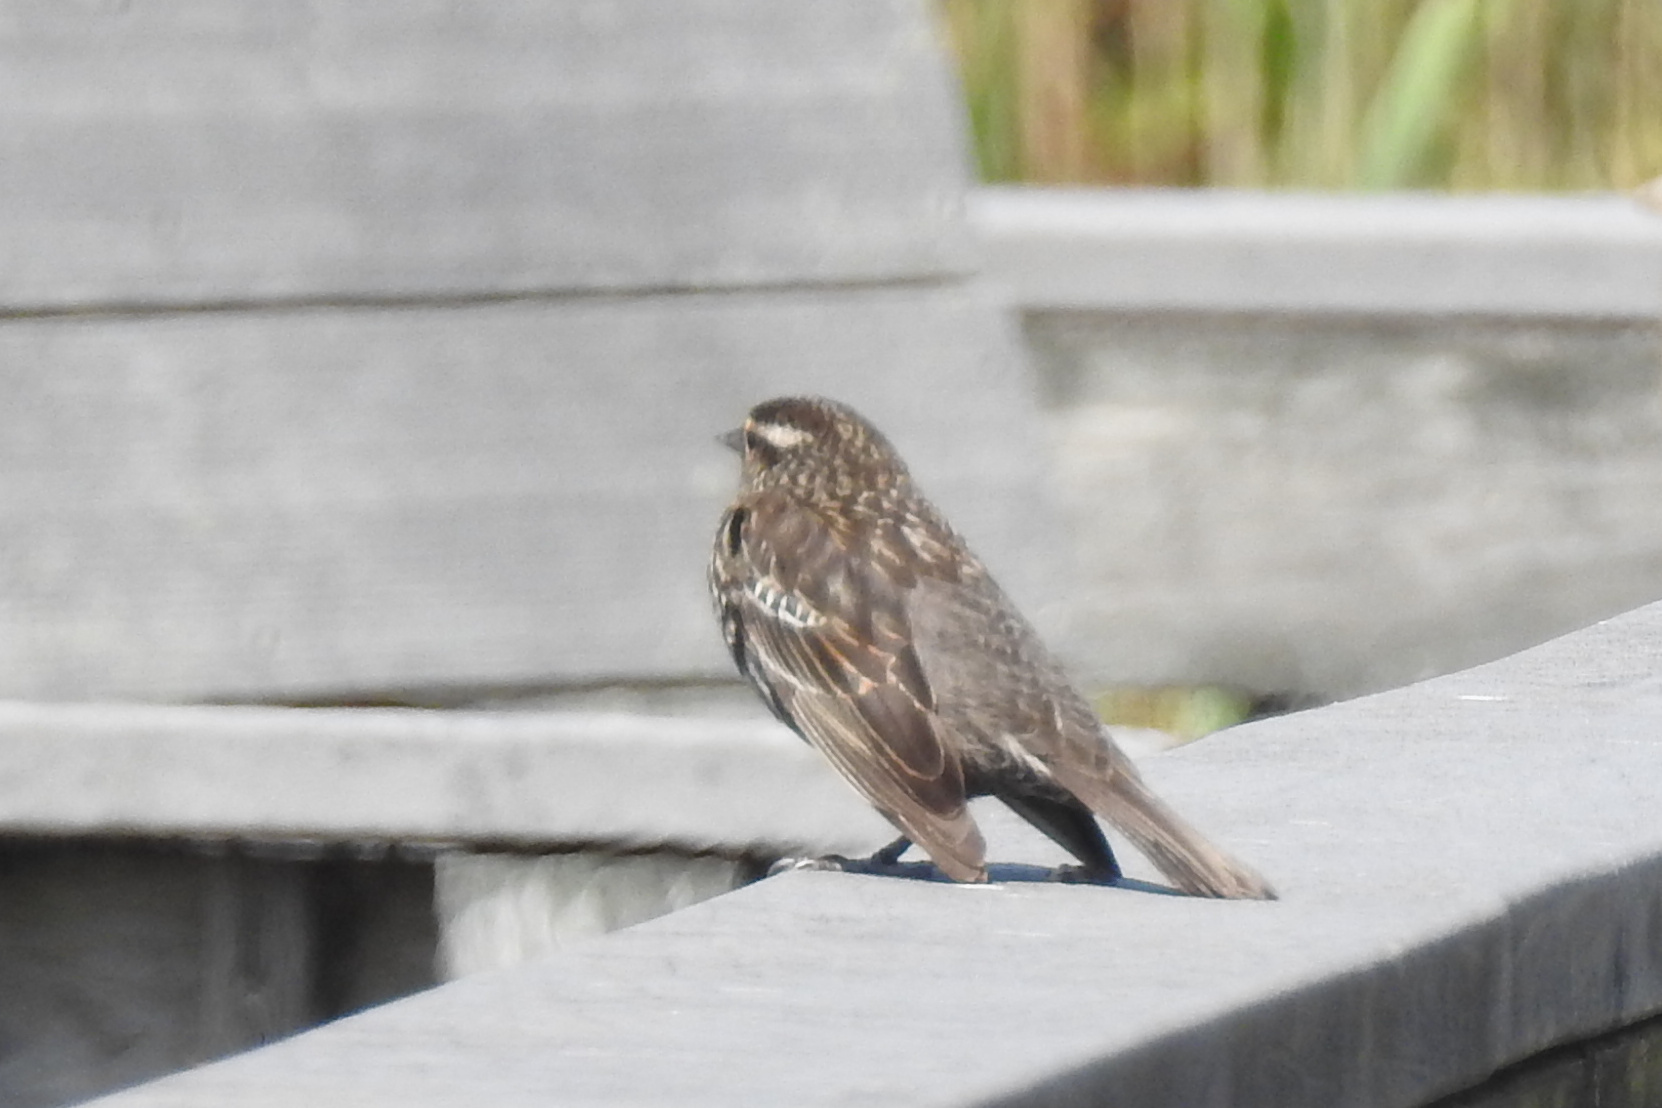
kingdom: Animalia
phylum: Chordata
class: Aves
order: Passeriformes
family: Icteridae
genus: Agelaius
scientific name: Agelaius phoeniceus
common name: Red-winged blackbird
